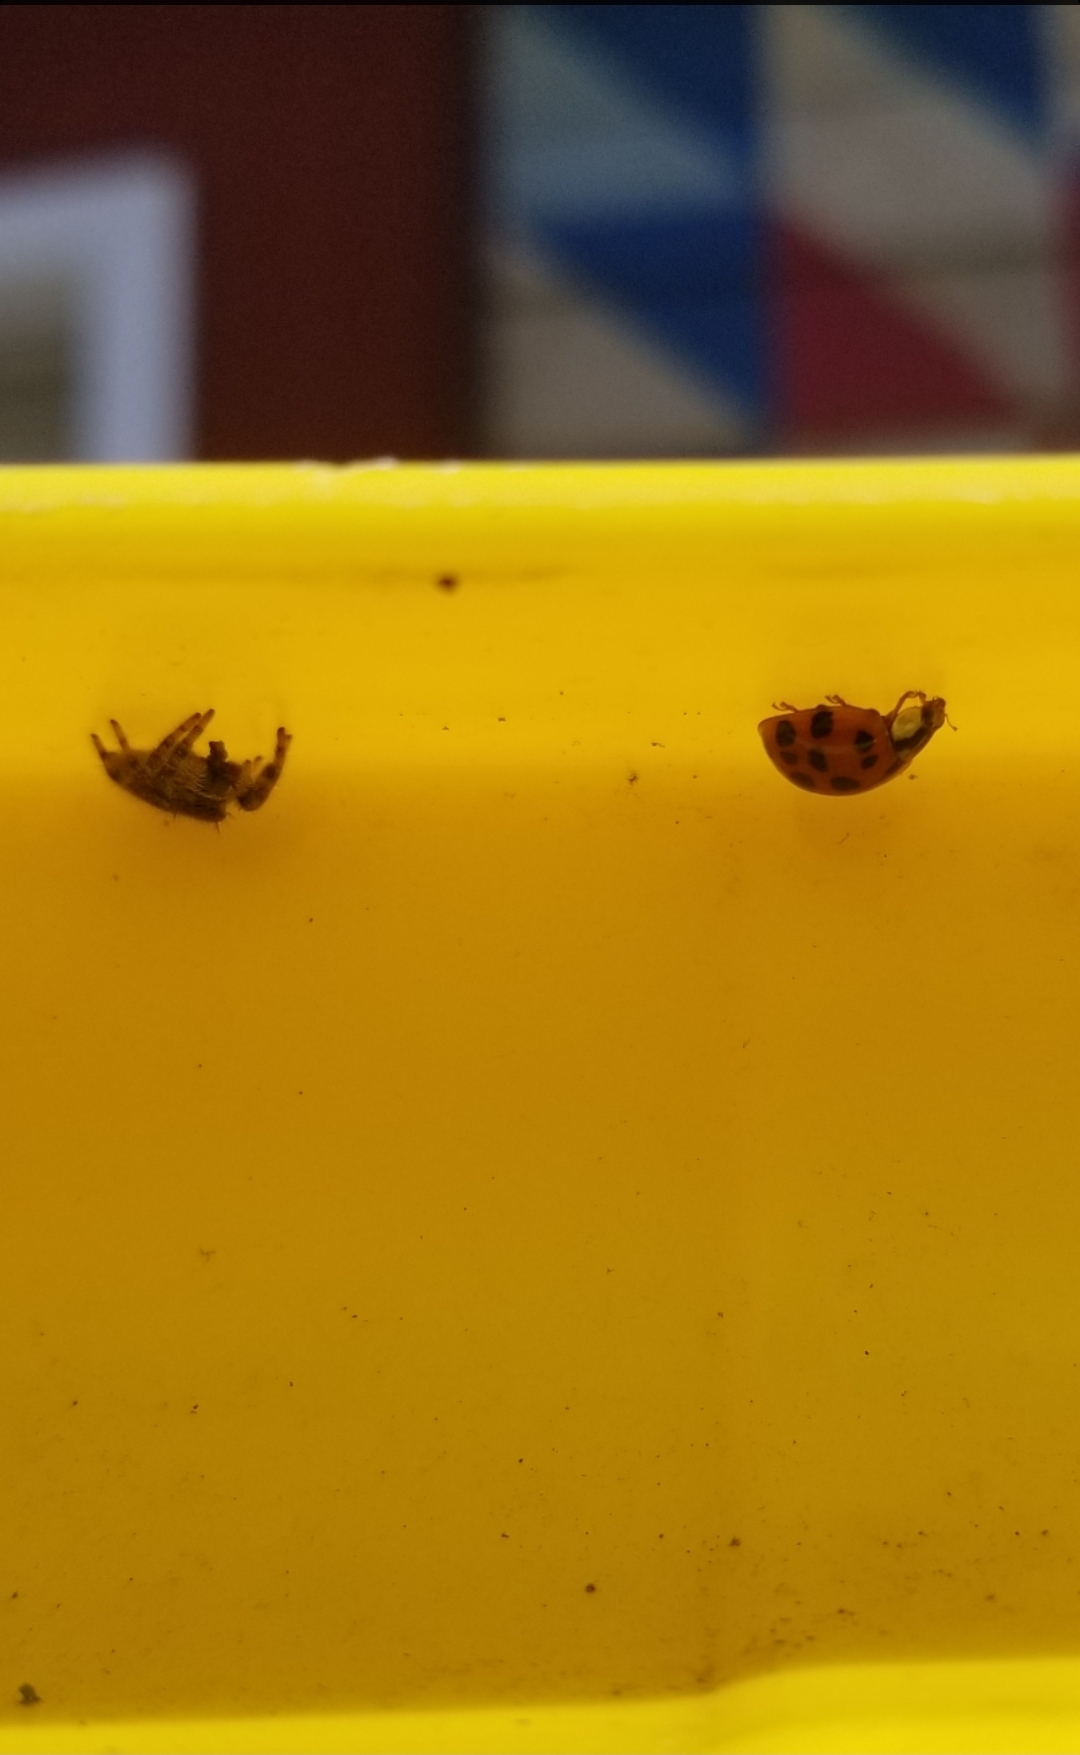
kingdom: Animalia
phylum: Arthropoda
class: Insecta
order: Coleoptera
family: Coccinellidae
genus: Harmonia
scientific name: Harmonia axyridis
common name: Harlequin ladybird
